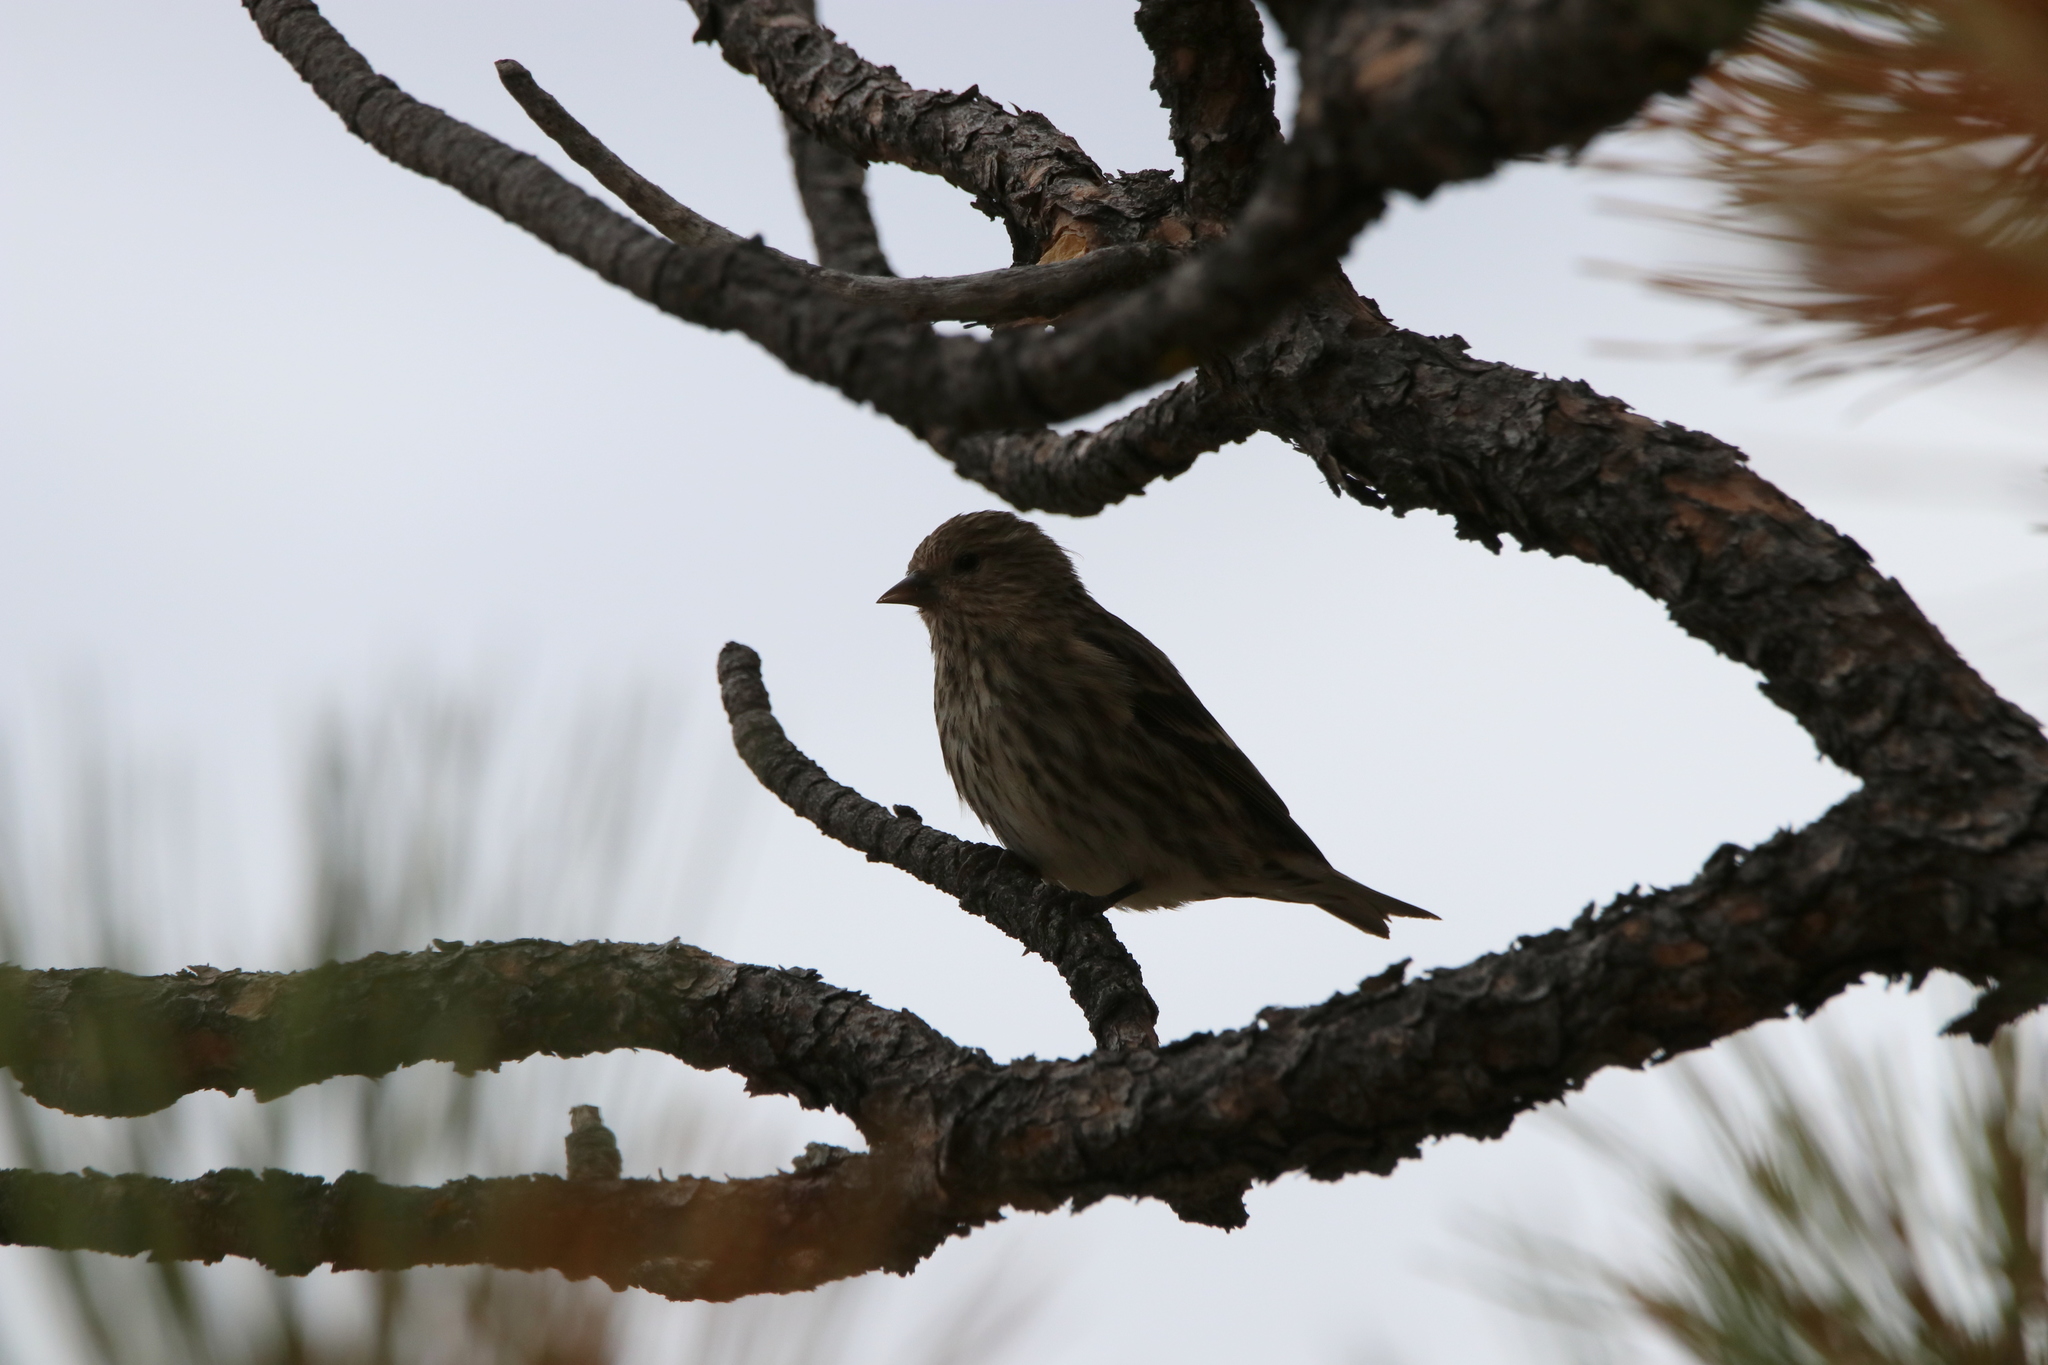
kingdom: Animalia
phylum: Chordata
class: Aves
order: Passeriformes
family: Fringillidae
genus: Spinus
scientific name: Spinus pinus
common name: Pine siskin
